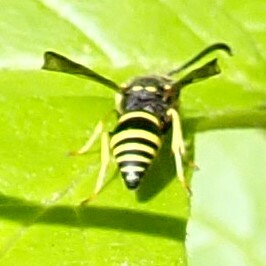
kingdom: Animalia
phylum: Arthropoda
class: Insecta
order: Hymenoptera
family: Vespidae
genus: Ancistrocerus
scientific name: Ancistrocerus
